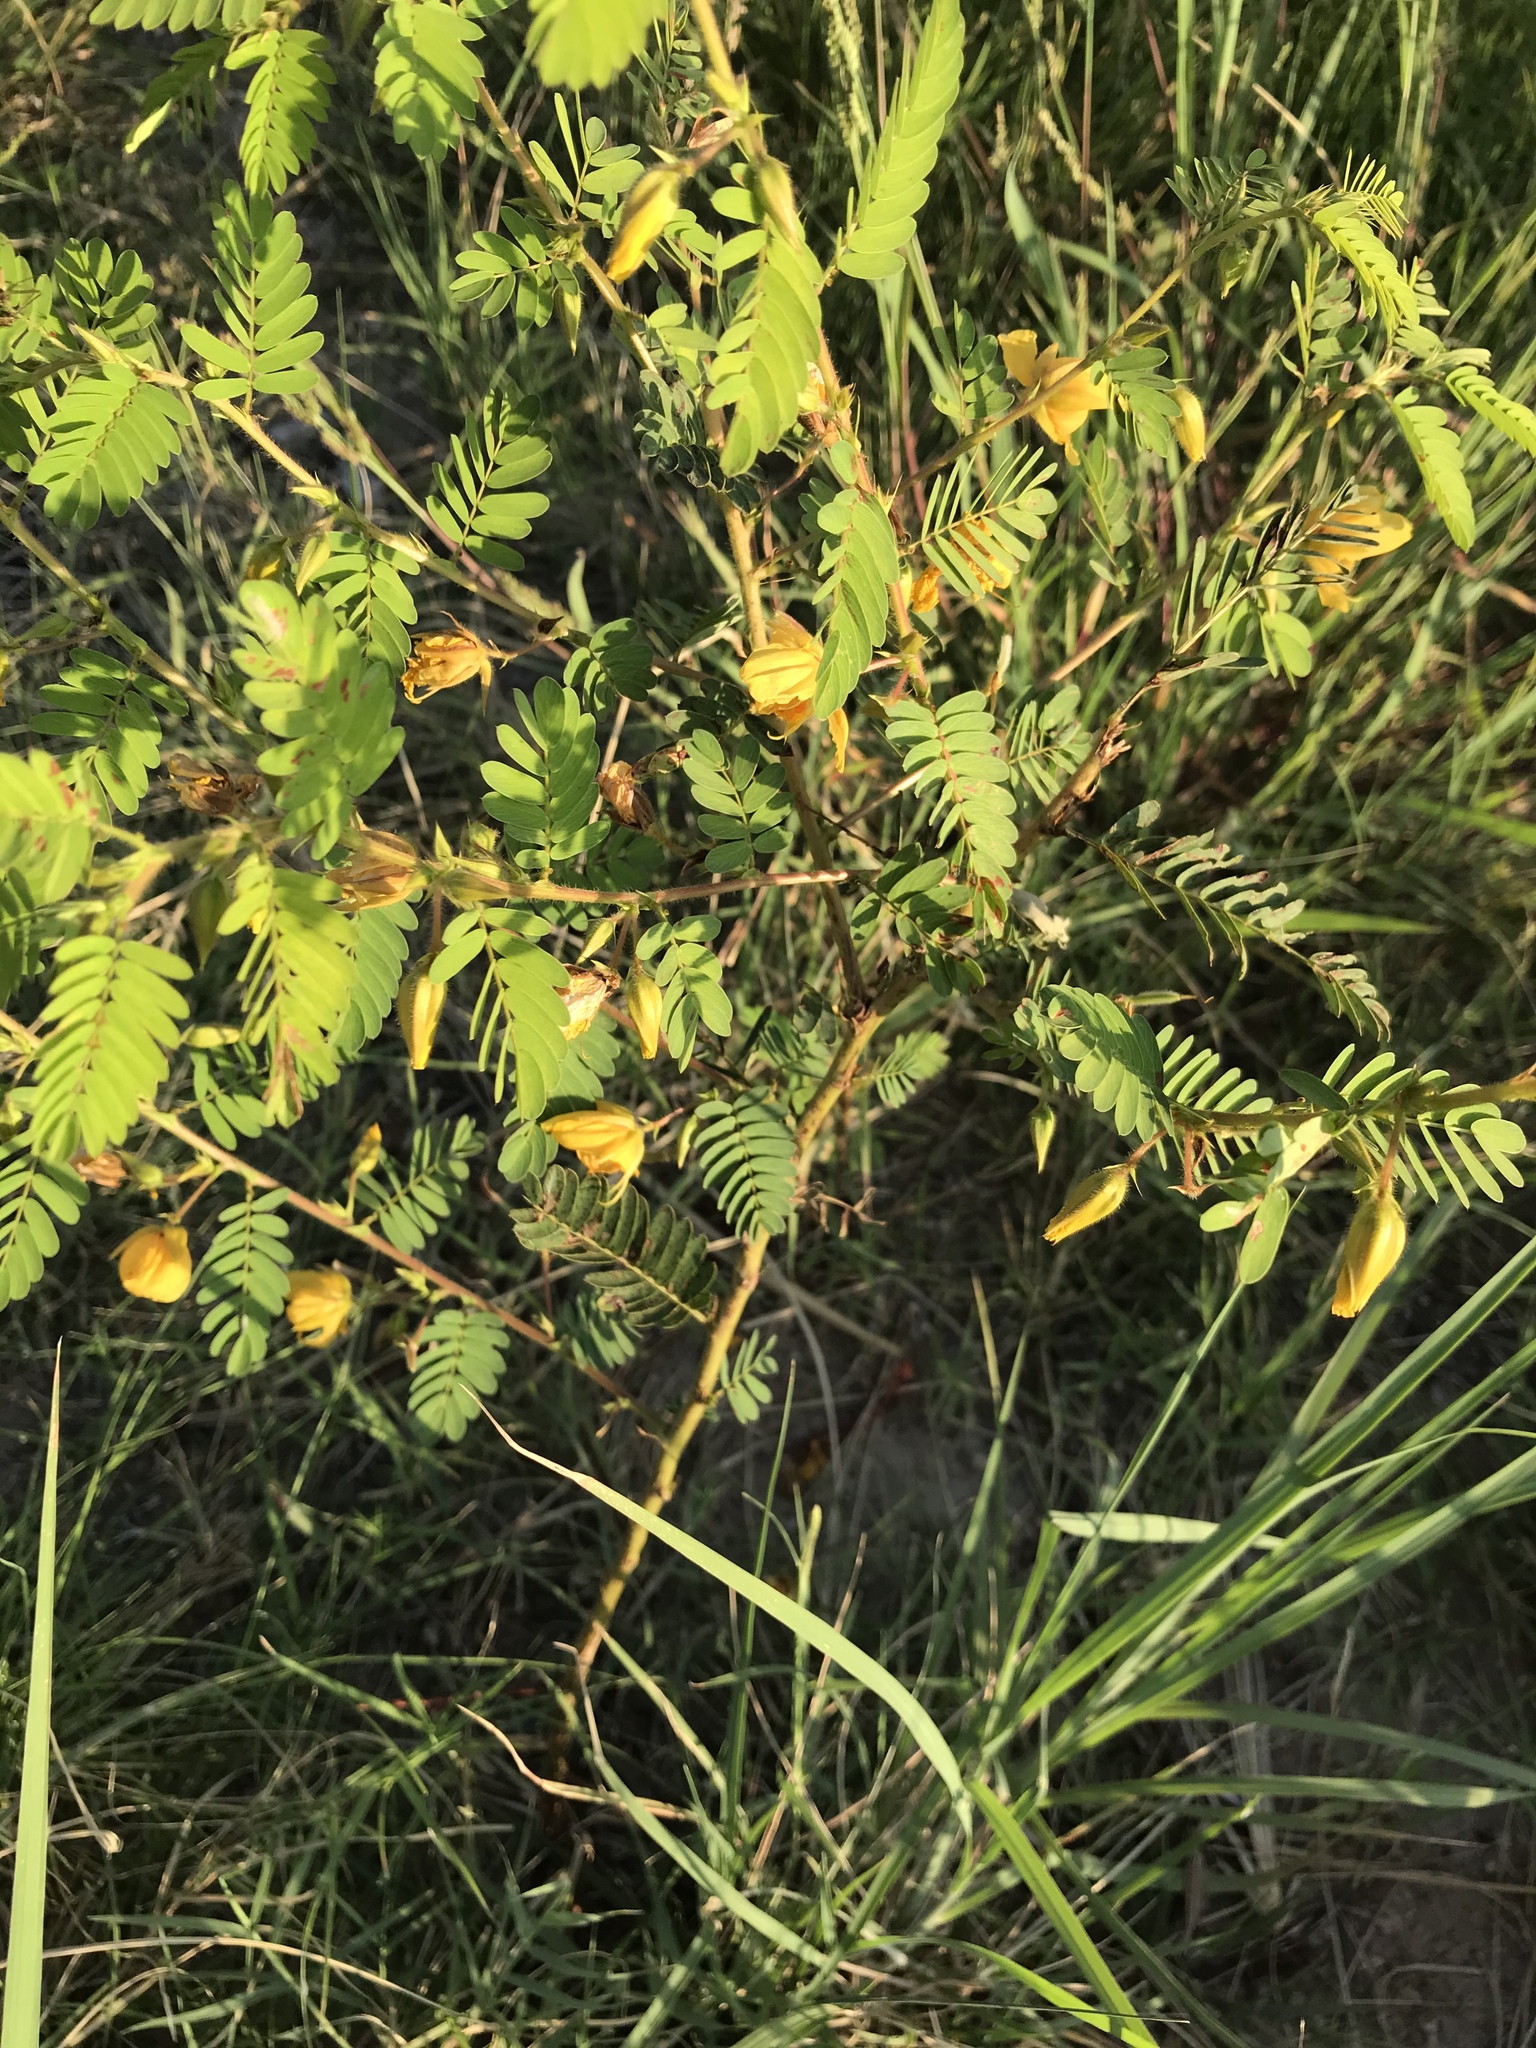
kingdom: Plantae
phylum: Tracheophyta
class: Magnoliopsida
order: Fabales
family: Fabaceae
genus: Chamaecrista
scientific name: Chamaecrista fasciculata
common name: Golden cassia
